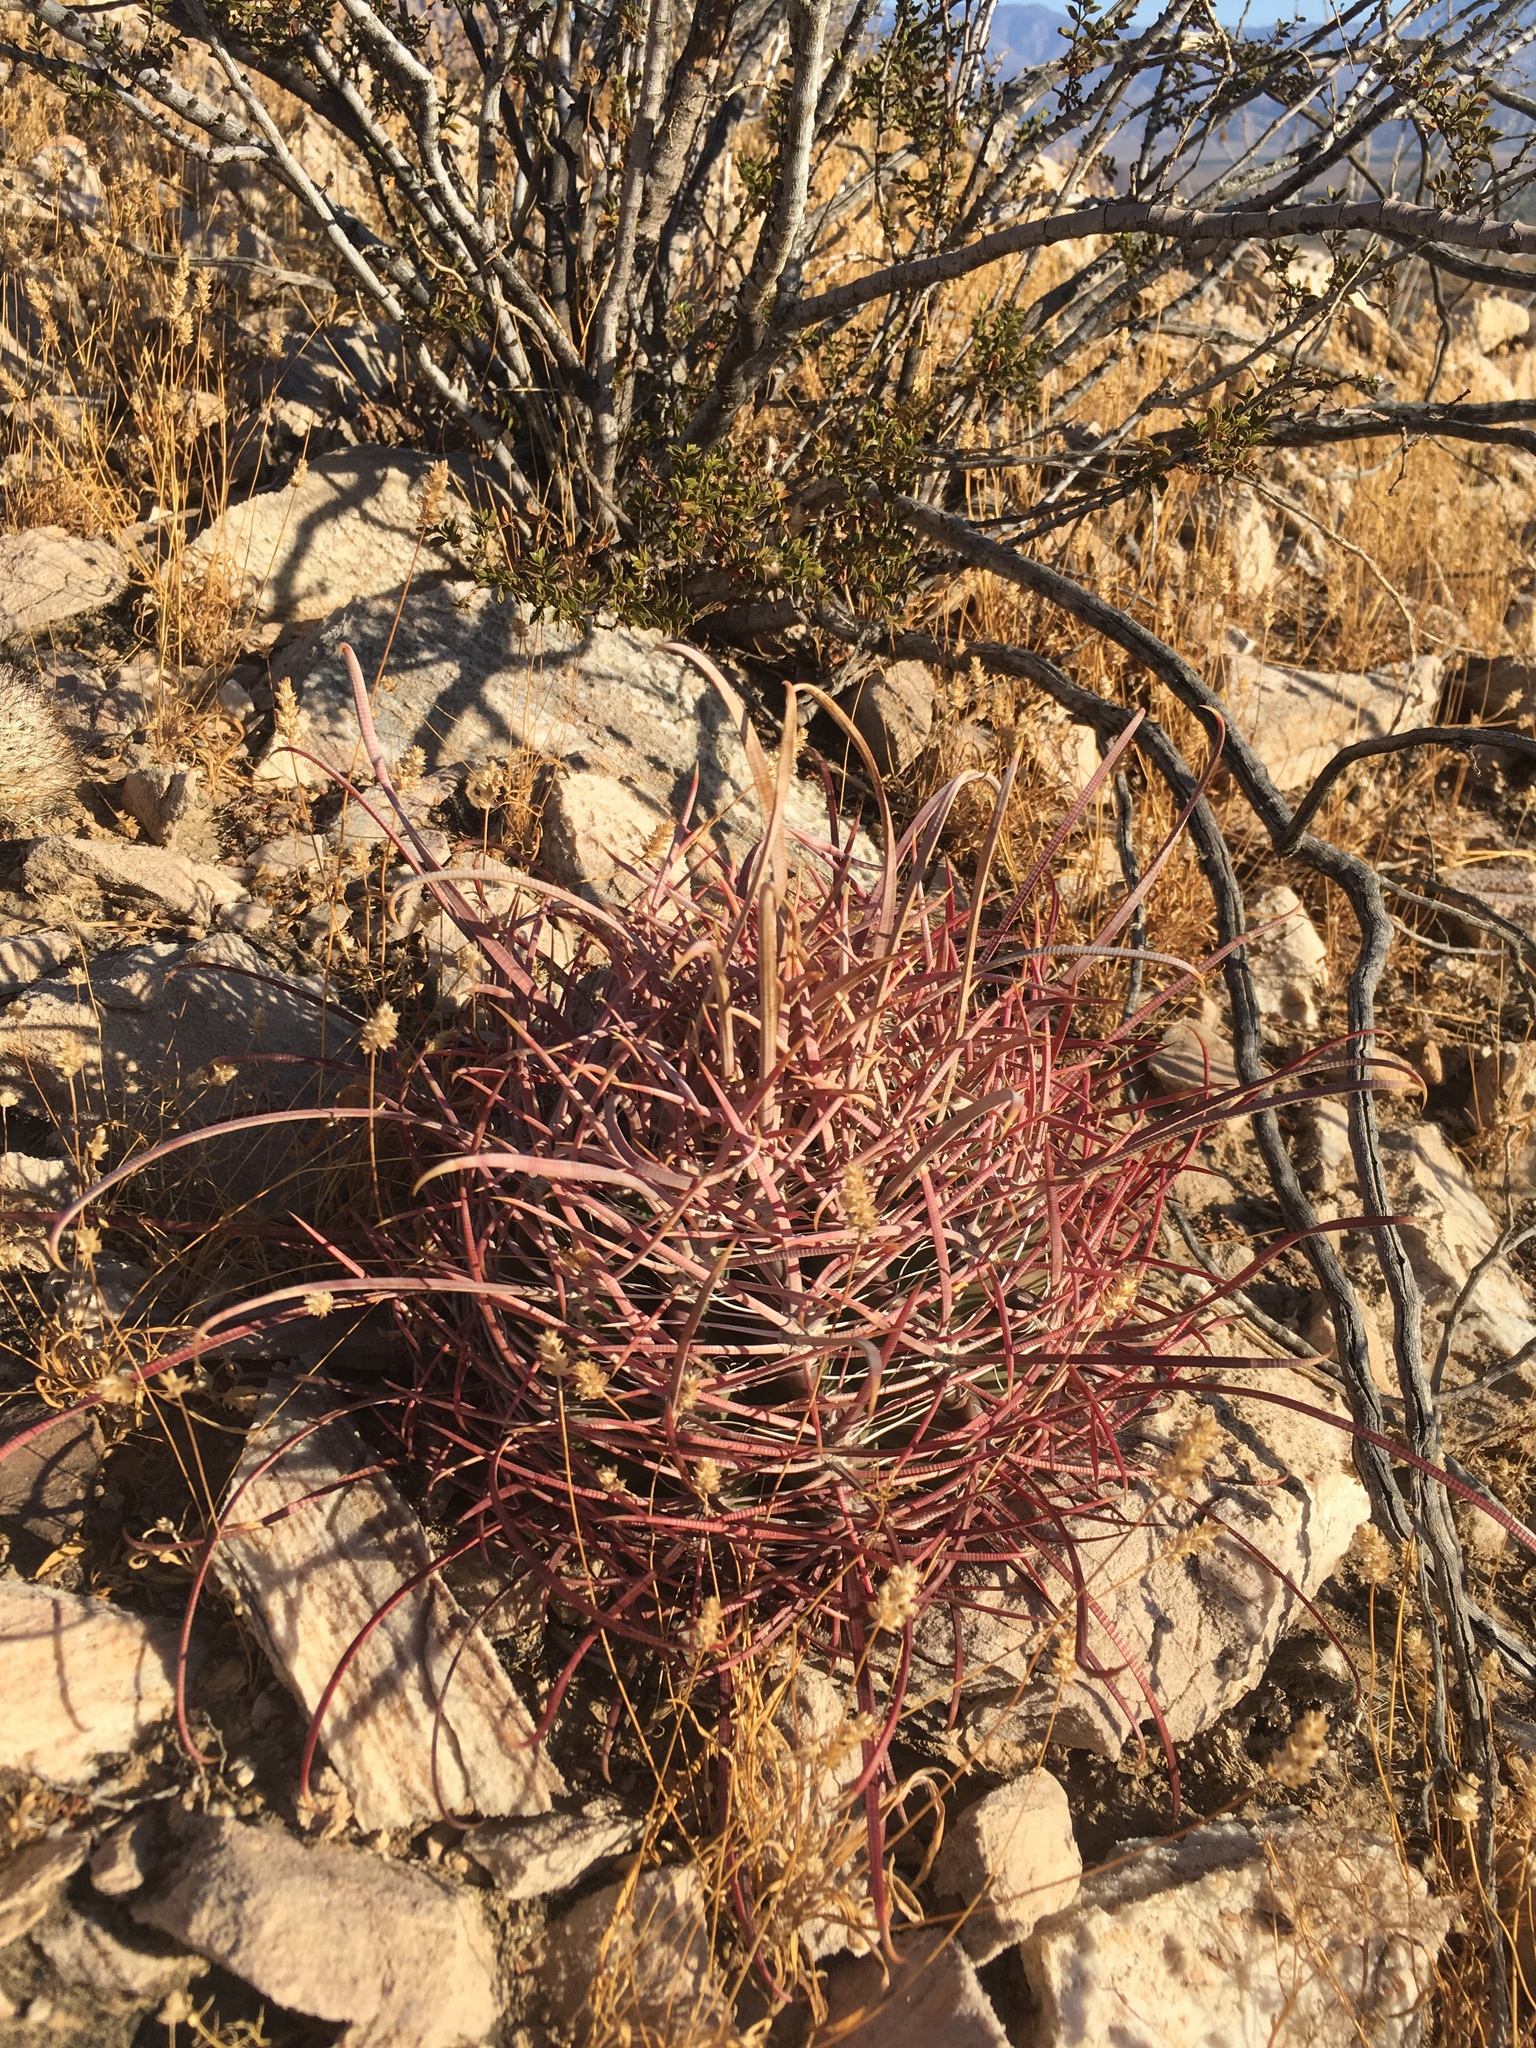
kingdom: Plantae
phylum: Tracheophyta
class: Magnoliopsida
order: Caryophyllales
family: Cactaceae
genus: Ferocactus
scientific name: Ferocactus cylindraceus
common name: California barrel cactus
